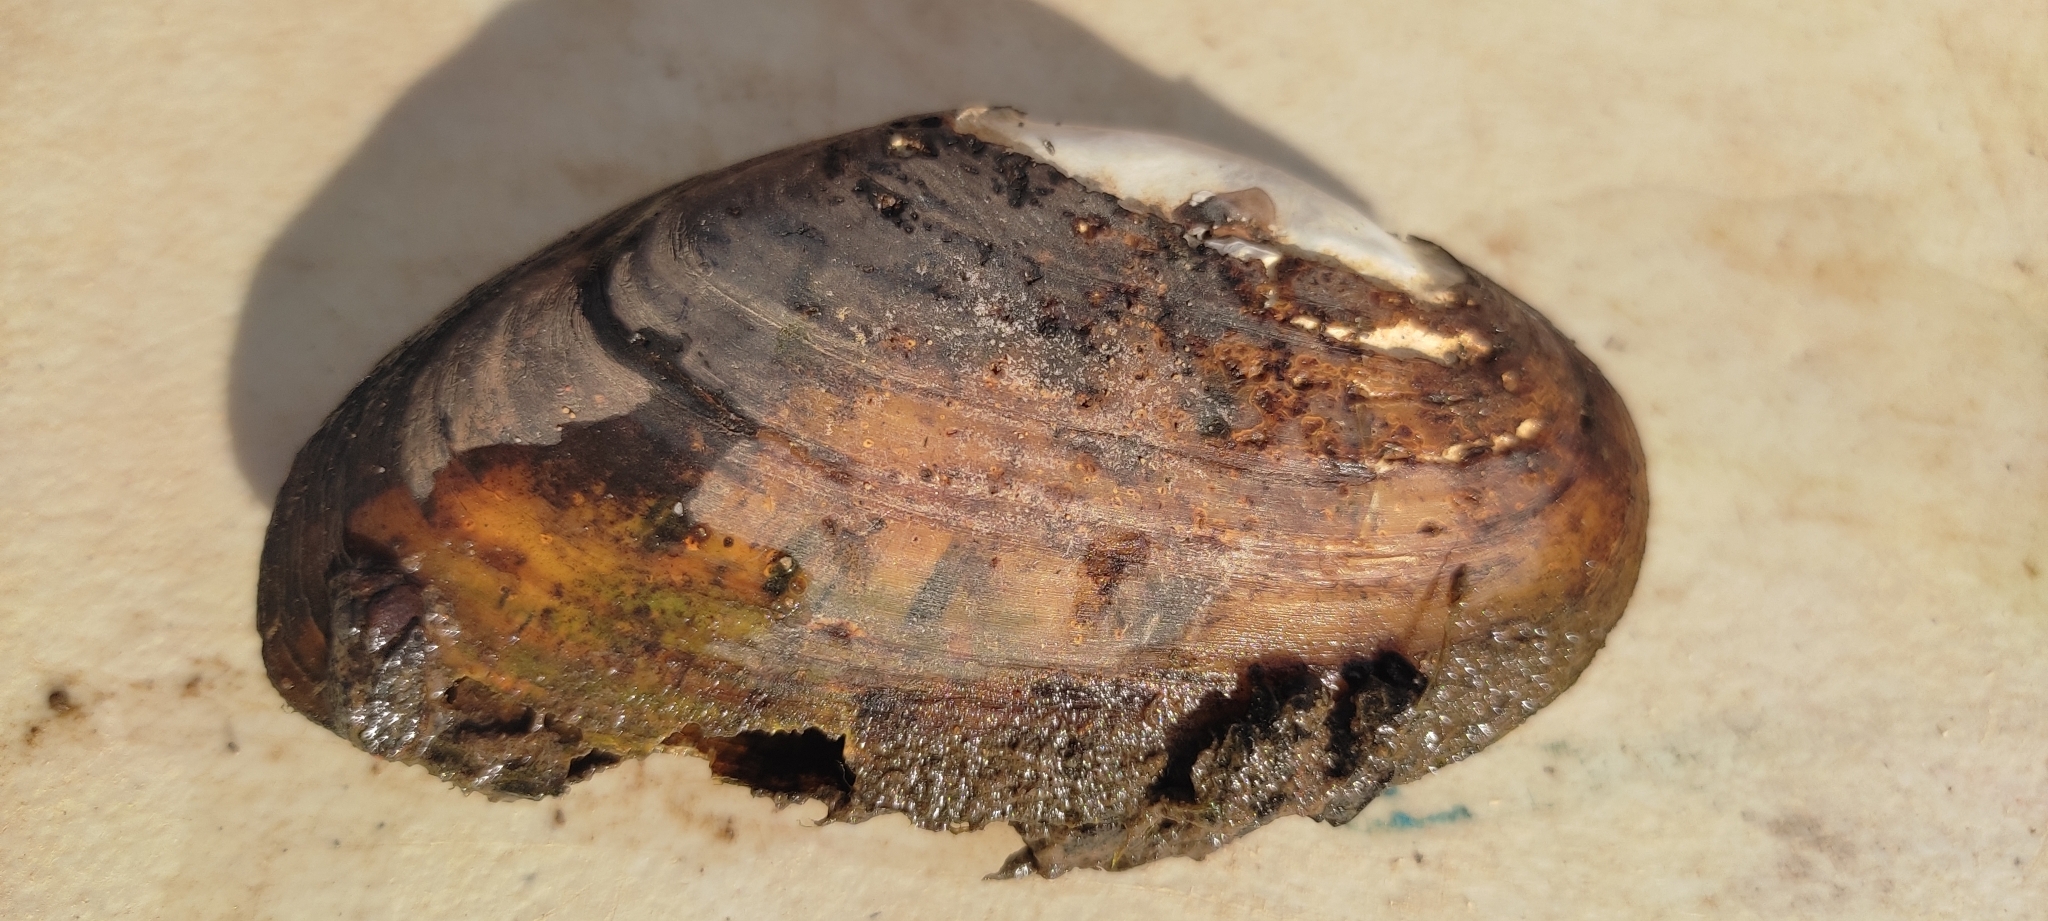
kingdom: Animalia
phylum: Mollusca
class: Bivalvia
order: Unionida
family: Unionidae
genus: Ptychobranchus
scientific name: Ptychobranchus fasciolaris
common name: Kidneyshell
